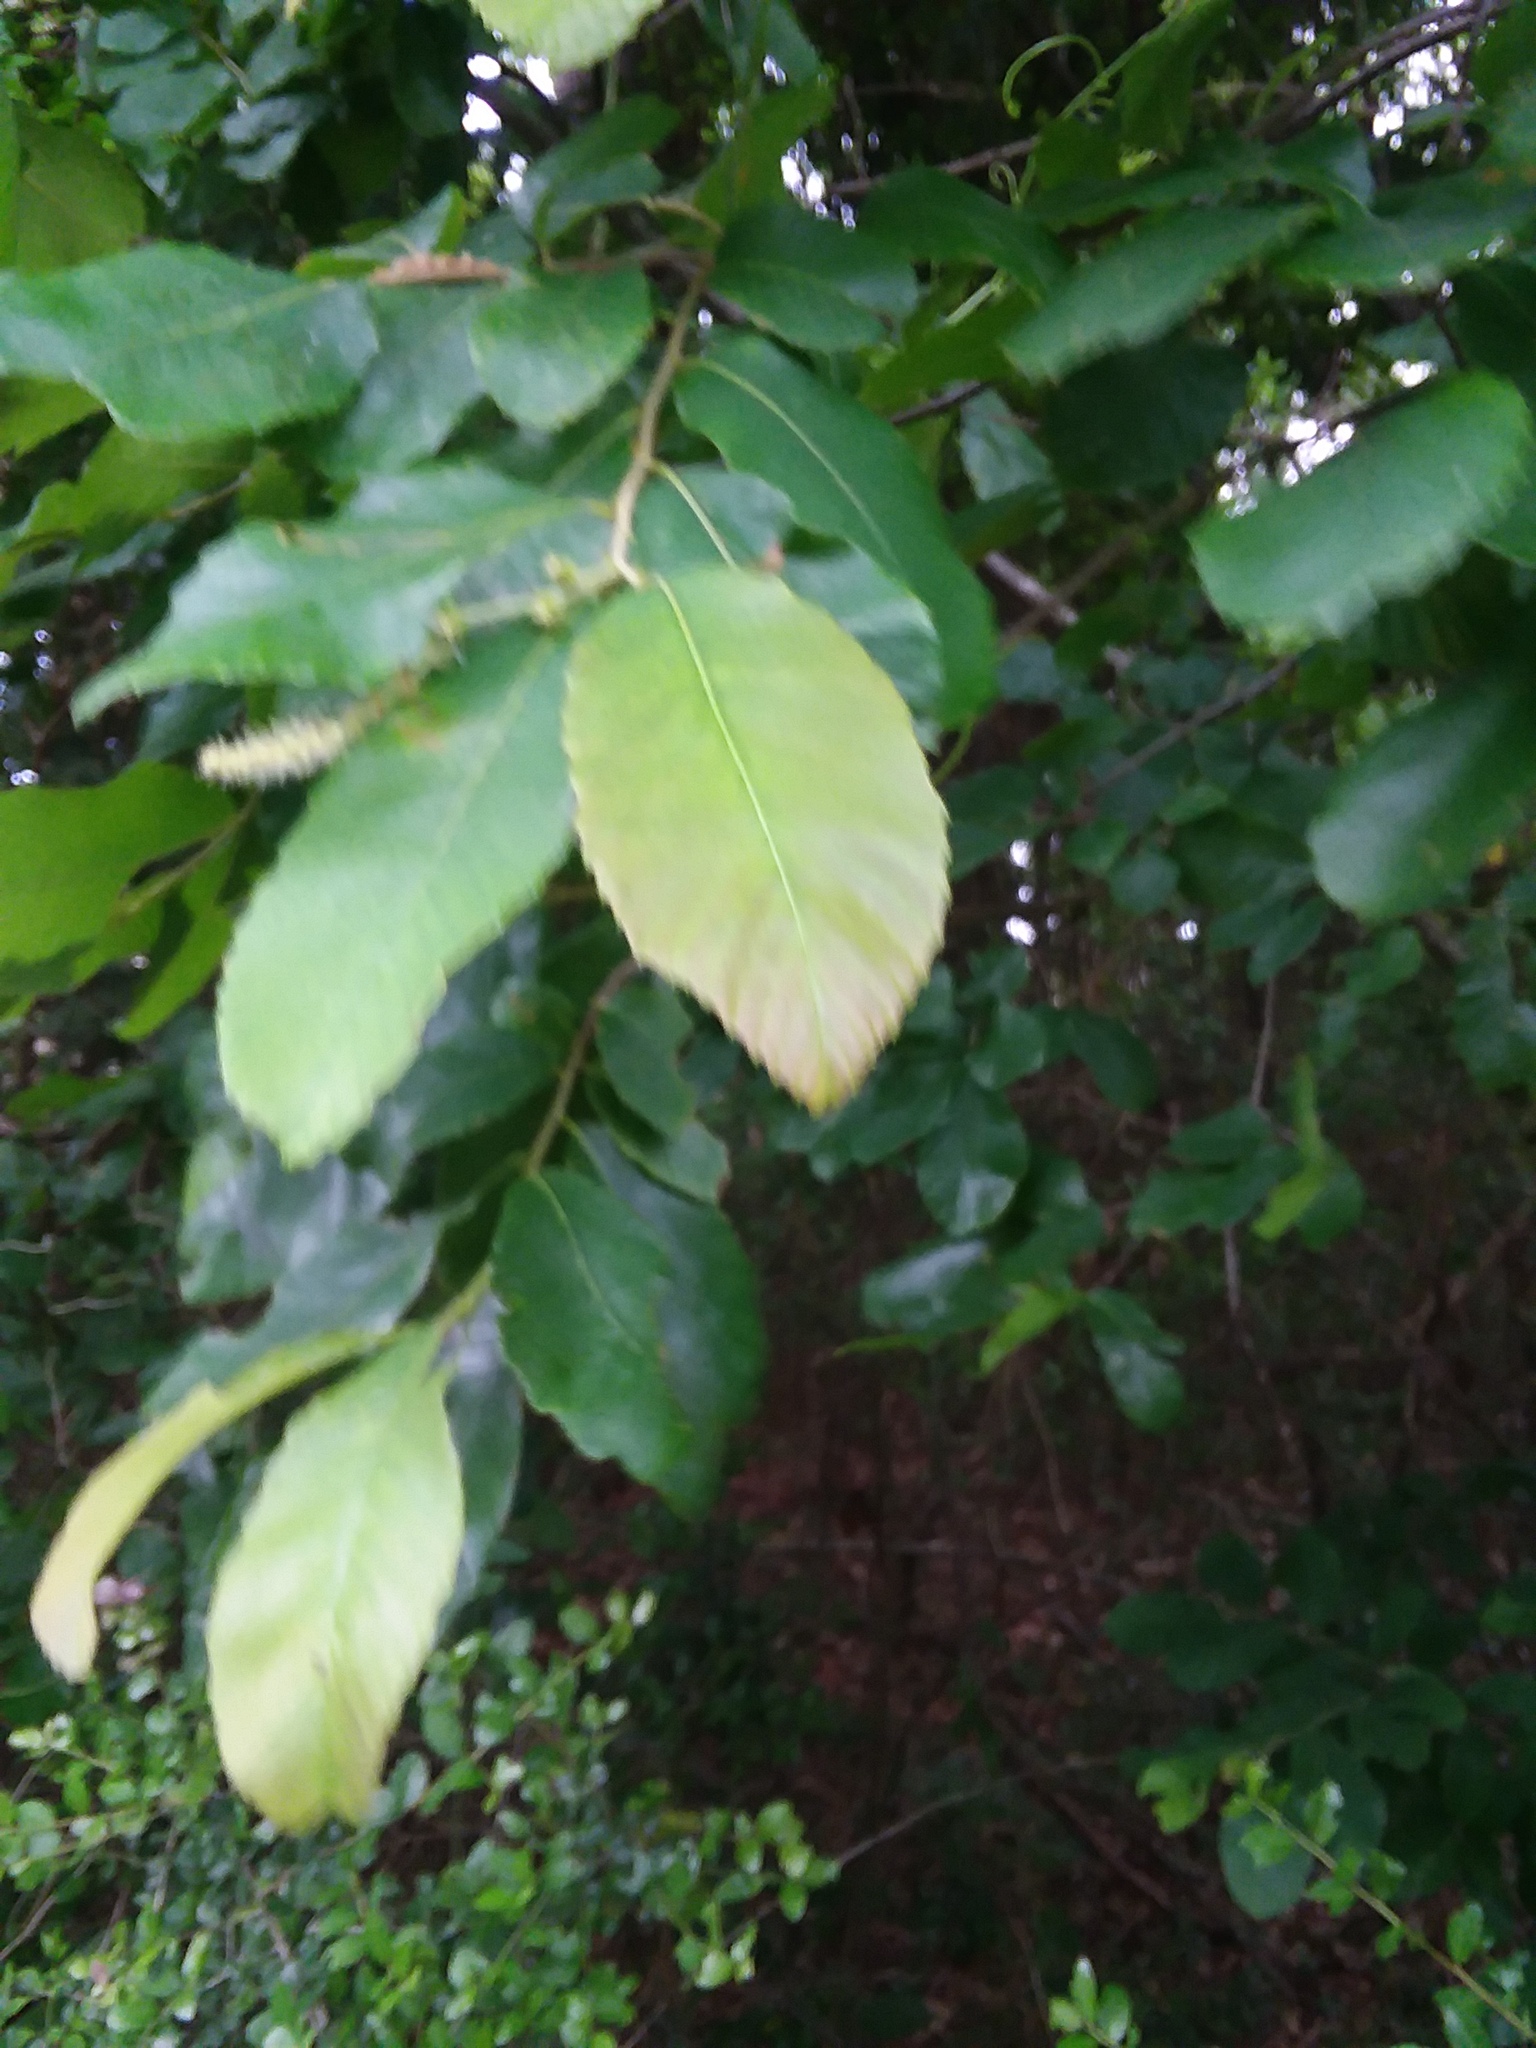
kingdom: Plantae
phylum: Tracheophyta
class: Magnoliopsida
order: Fagales
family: Fagaceae
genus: Castanea
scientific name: Castanea pumila
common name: Chinkapin
